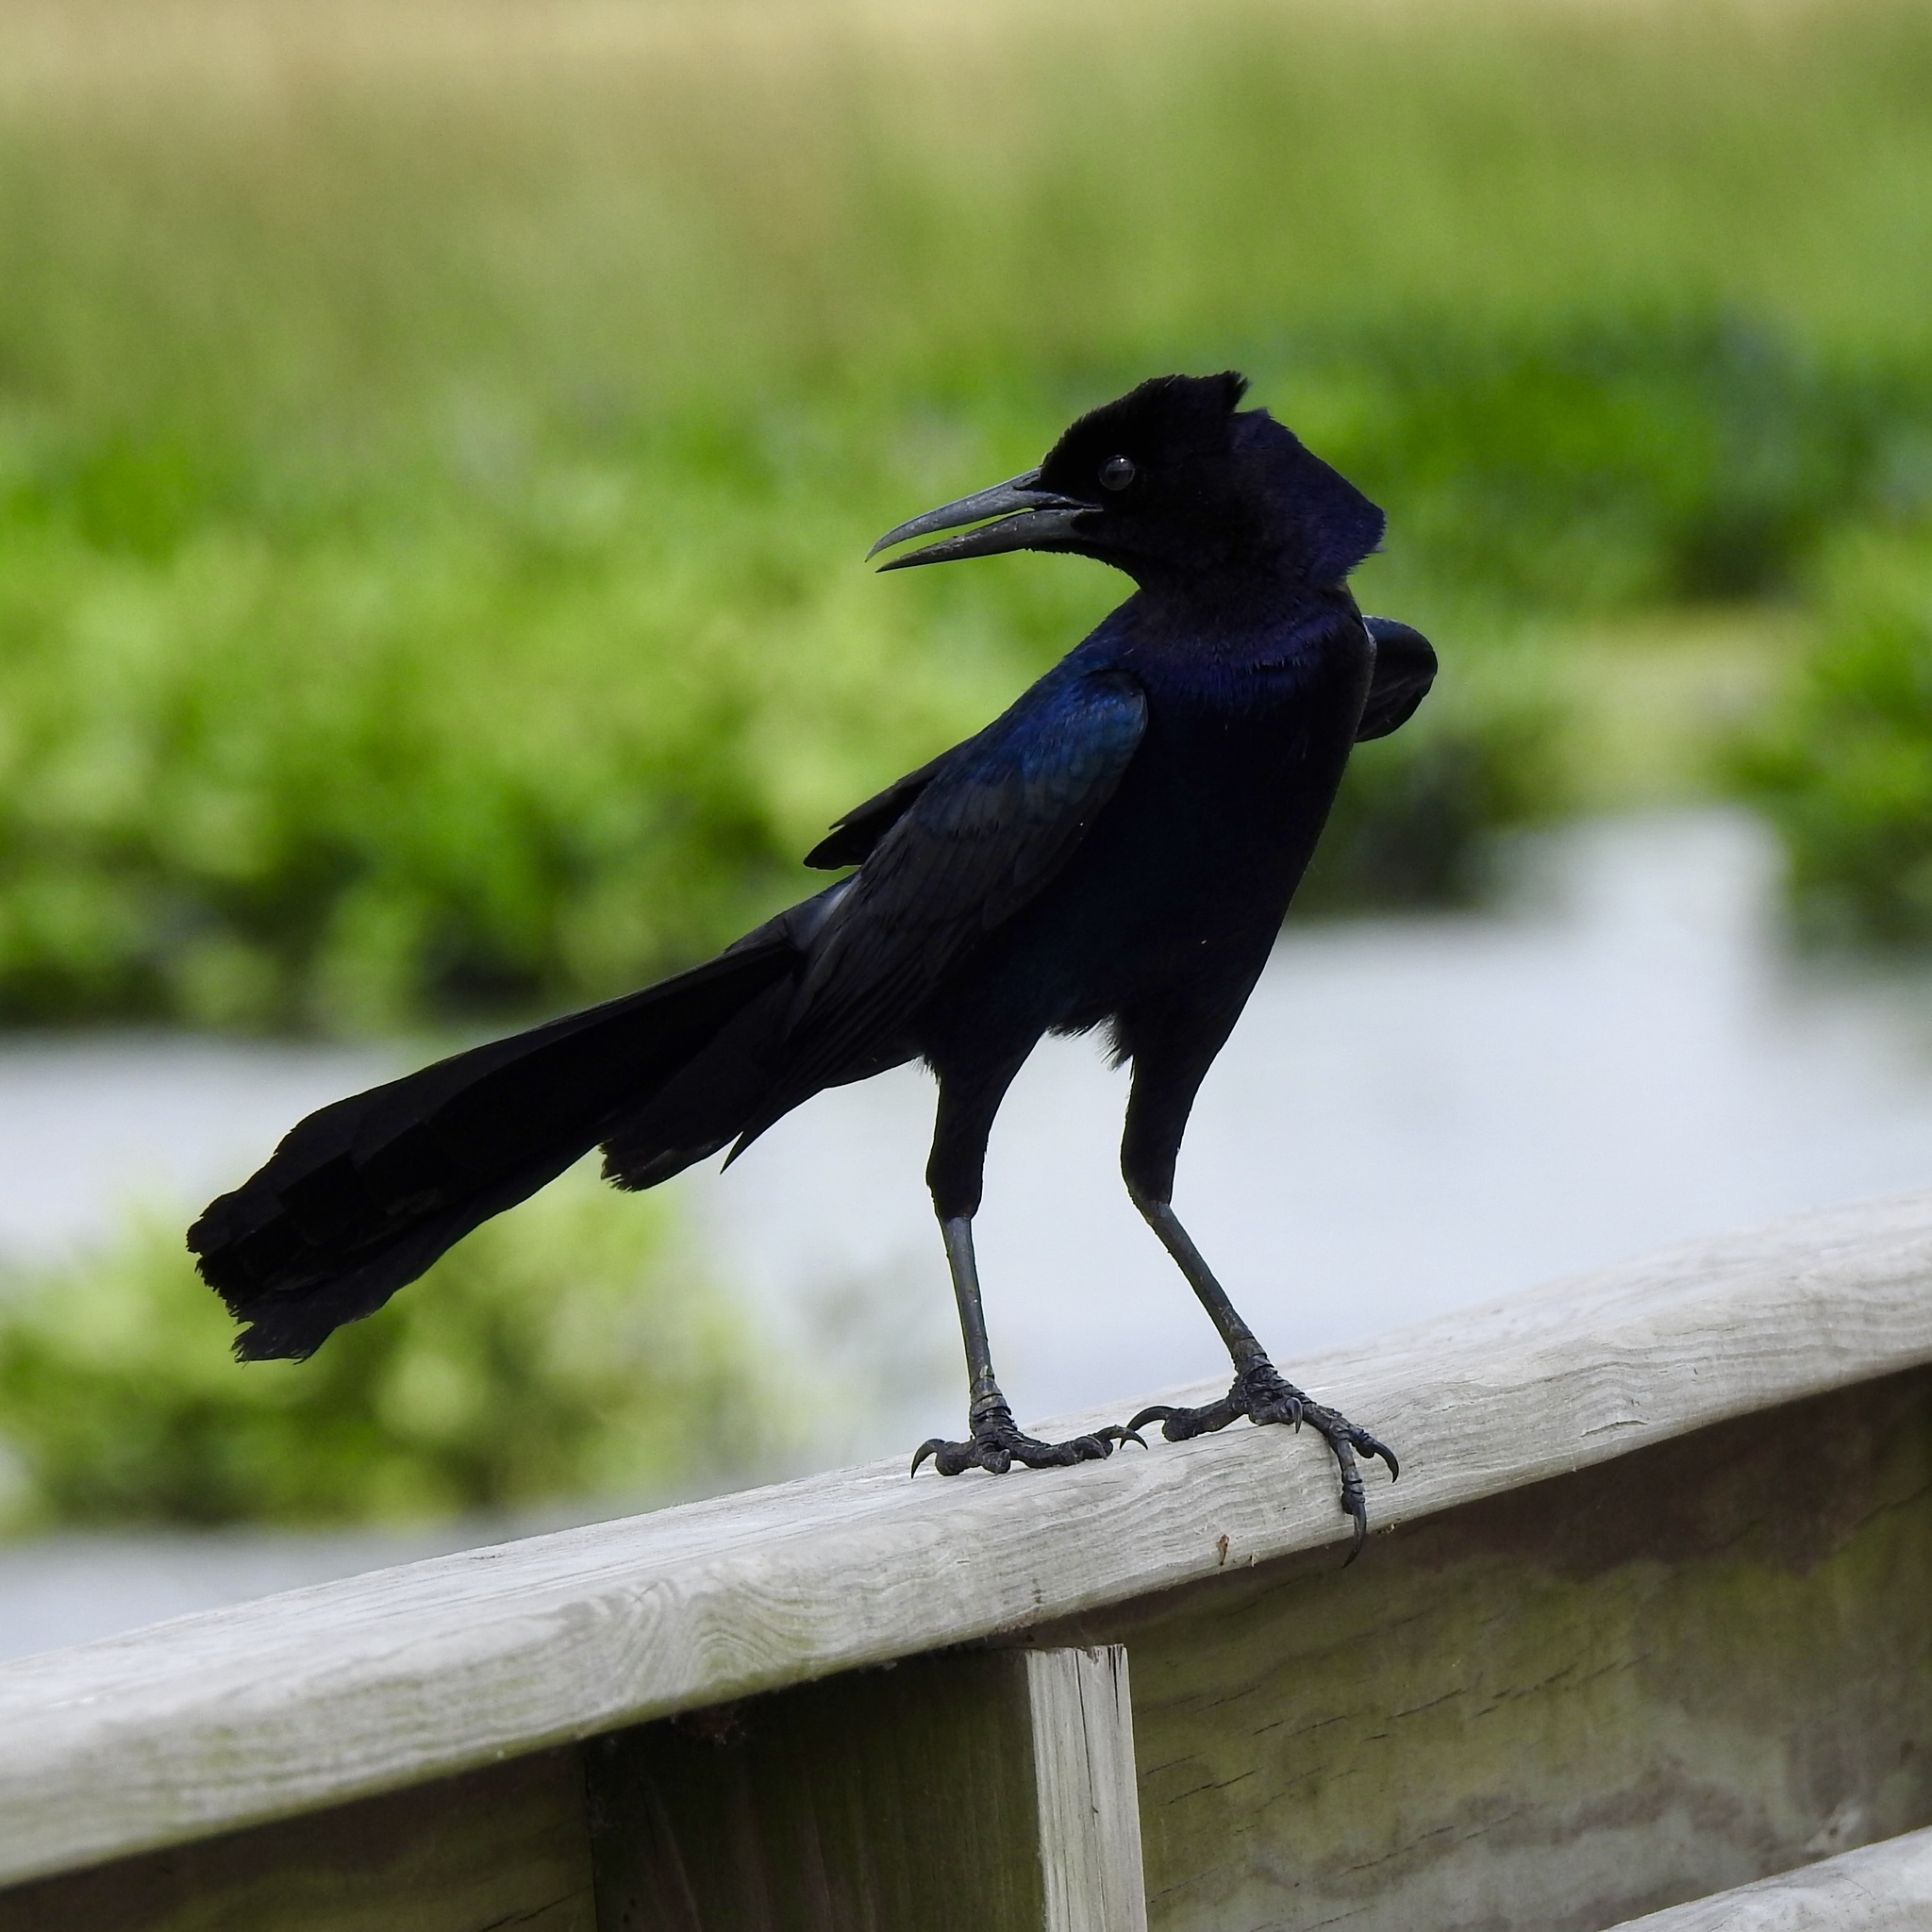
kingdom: Animalia
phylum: Chordata
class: Aves
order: Passeriformes
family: Icteridae
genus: Quiscalus
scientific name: Quiscalus major
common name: Boat-tailed grackle
